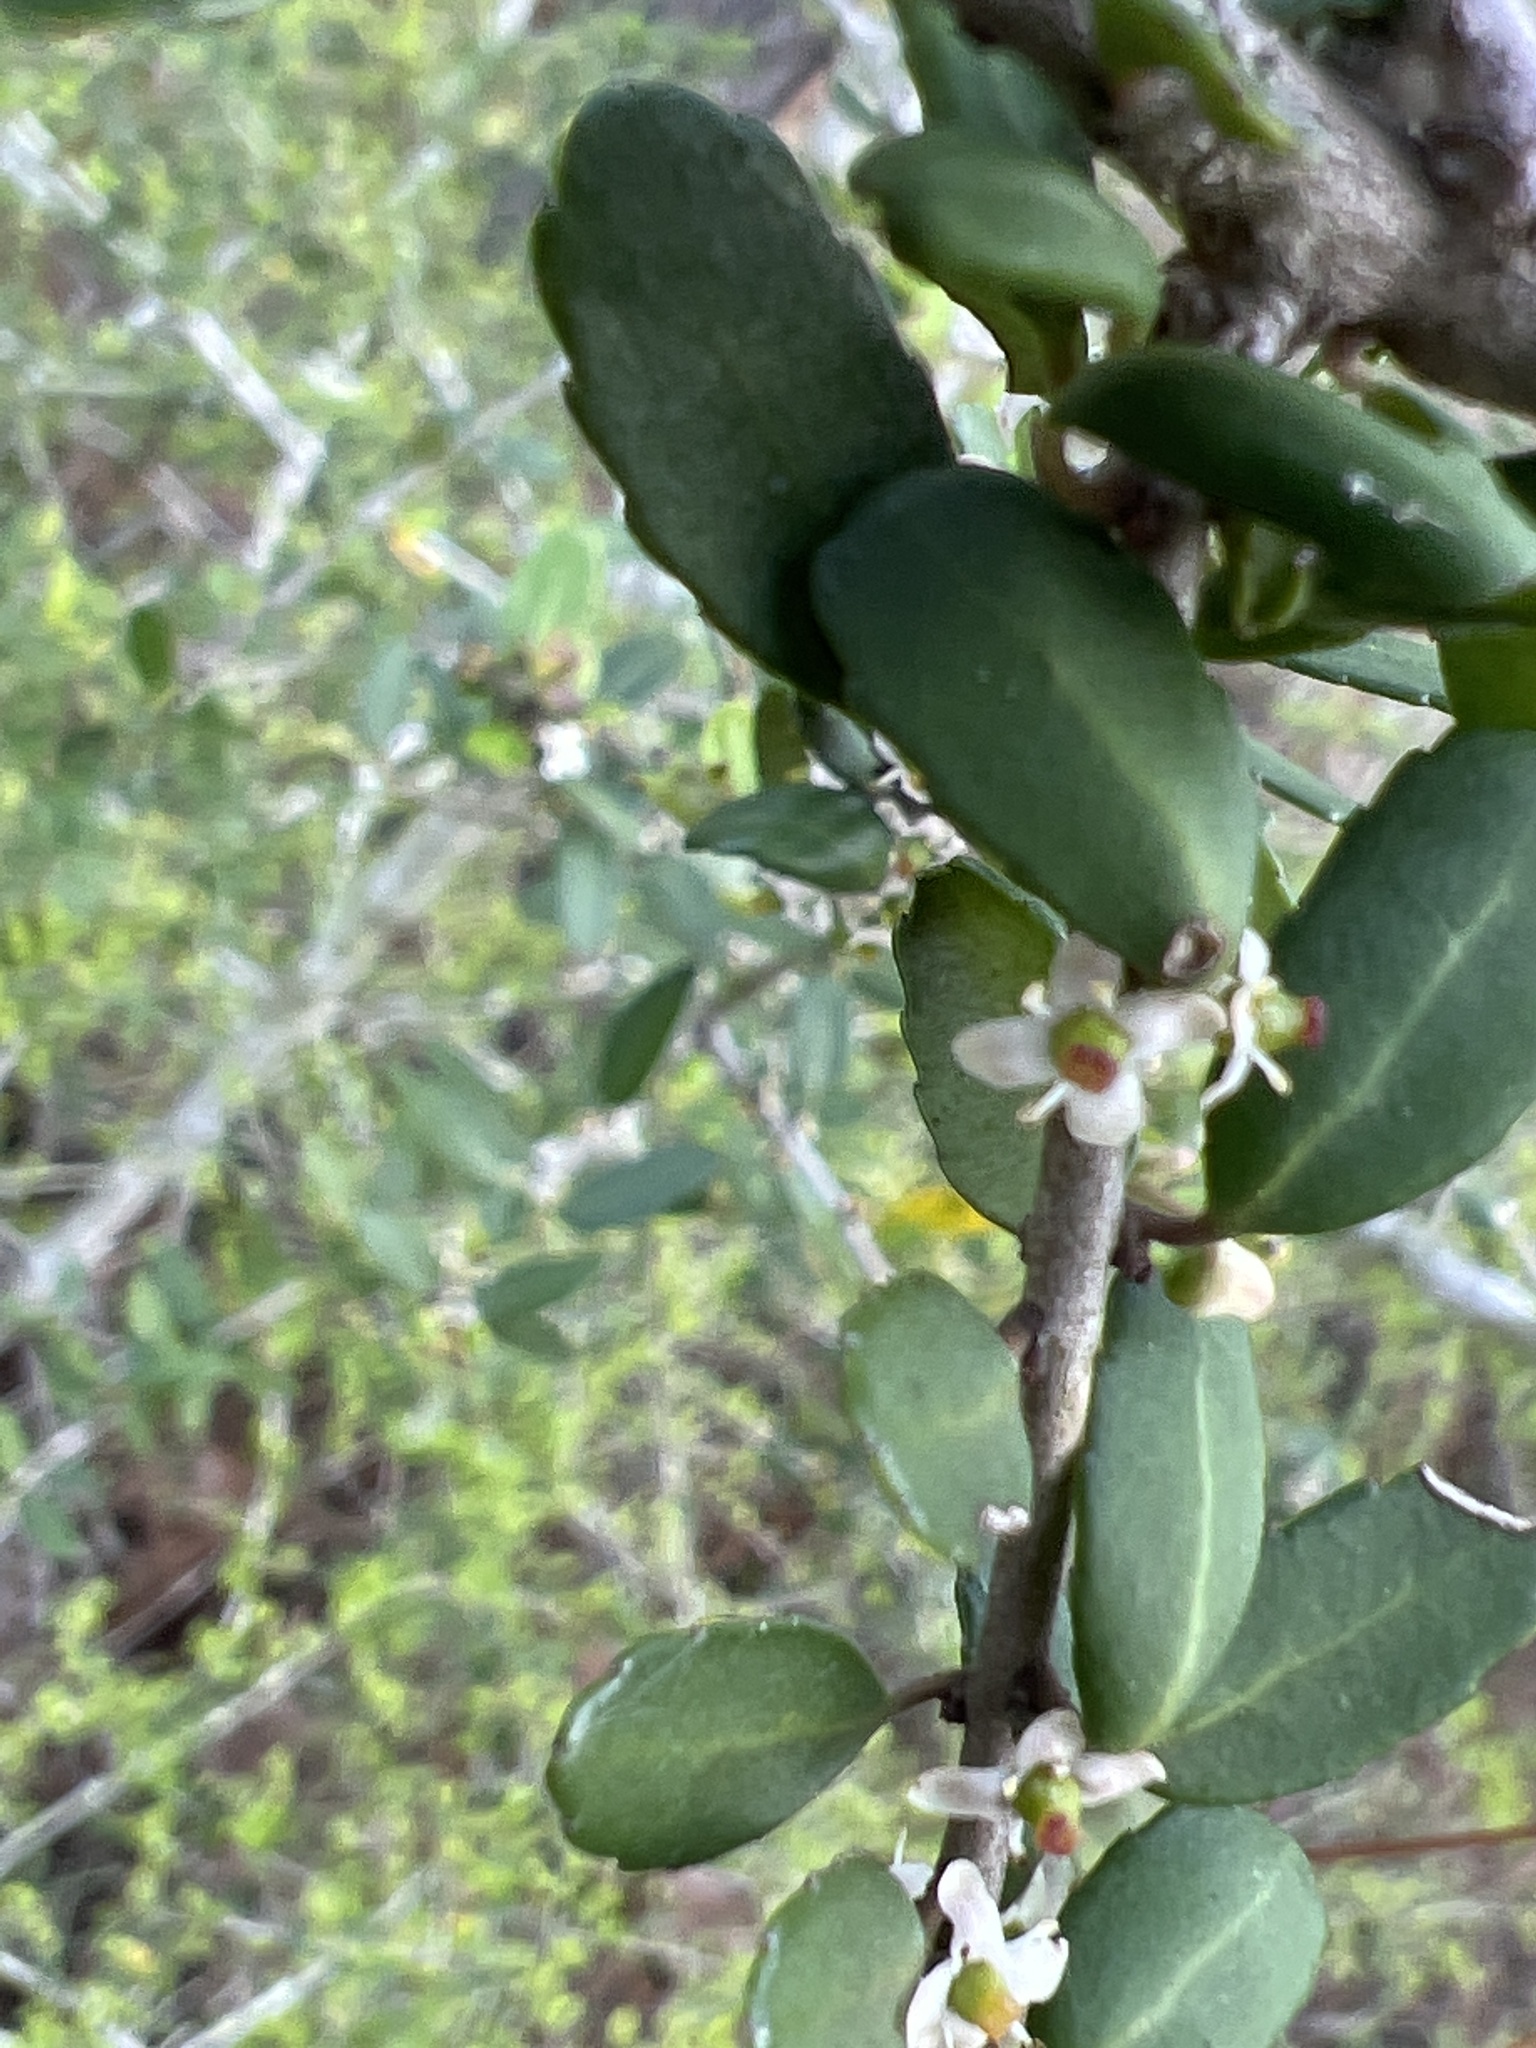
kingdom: Plantae
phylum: Tracheophyta
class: Magnoliopsida
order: Aquifoliales
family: Aquifoliaceae
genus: Ilex
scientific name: Ilex vomitoria
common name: Yaupon holly
